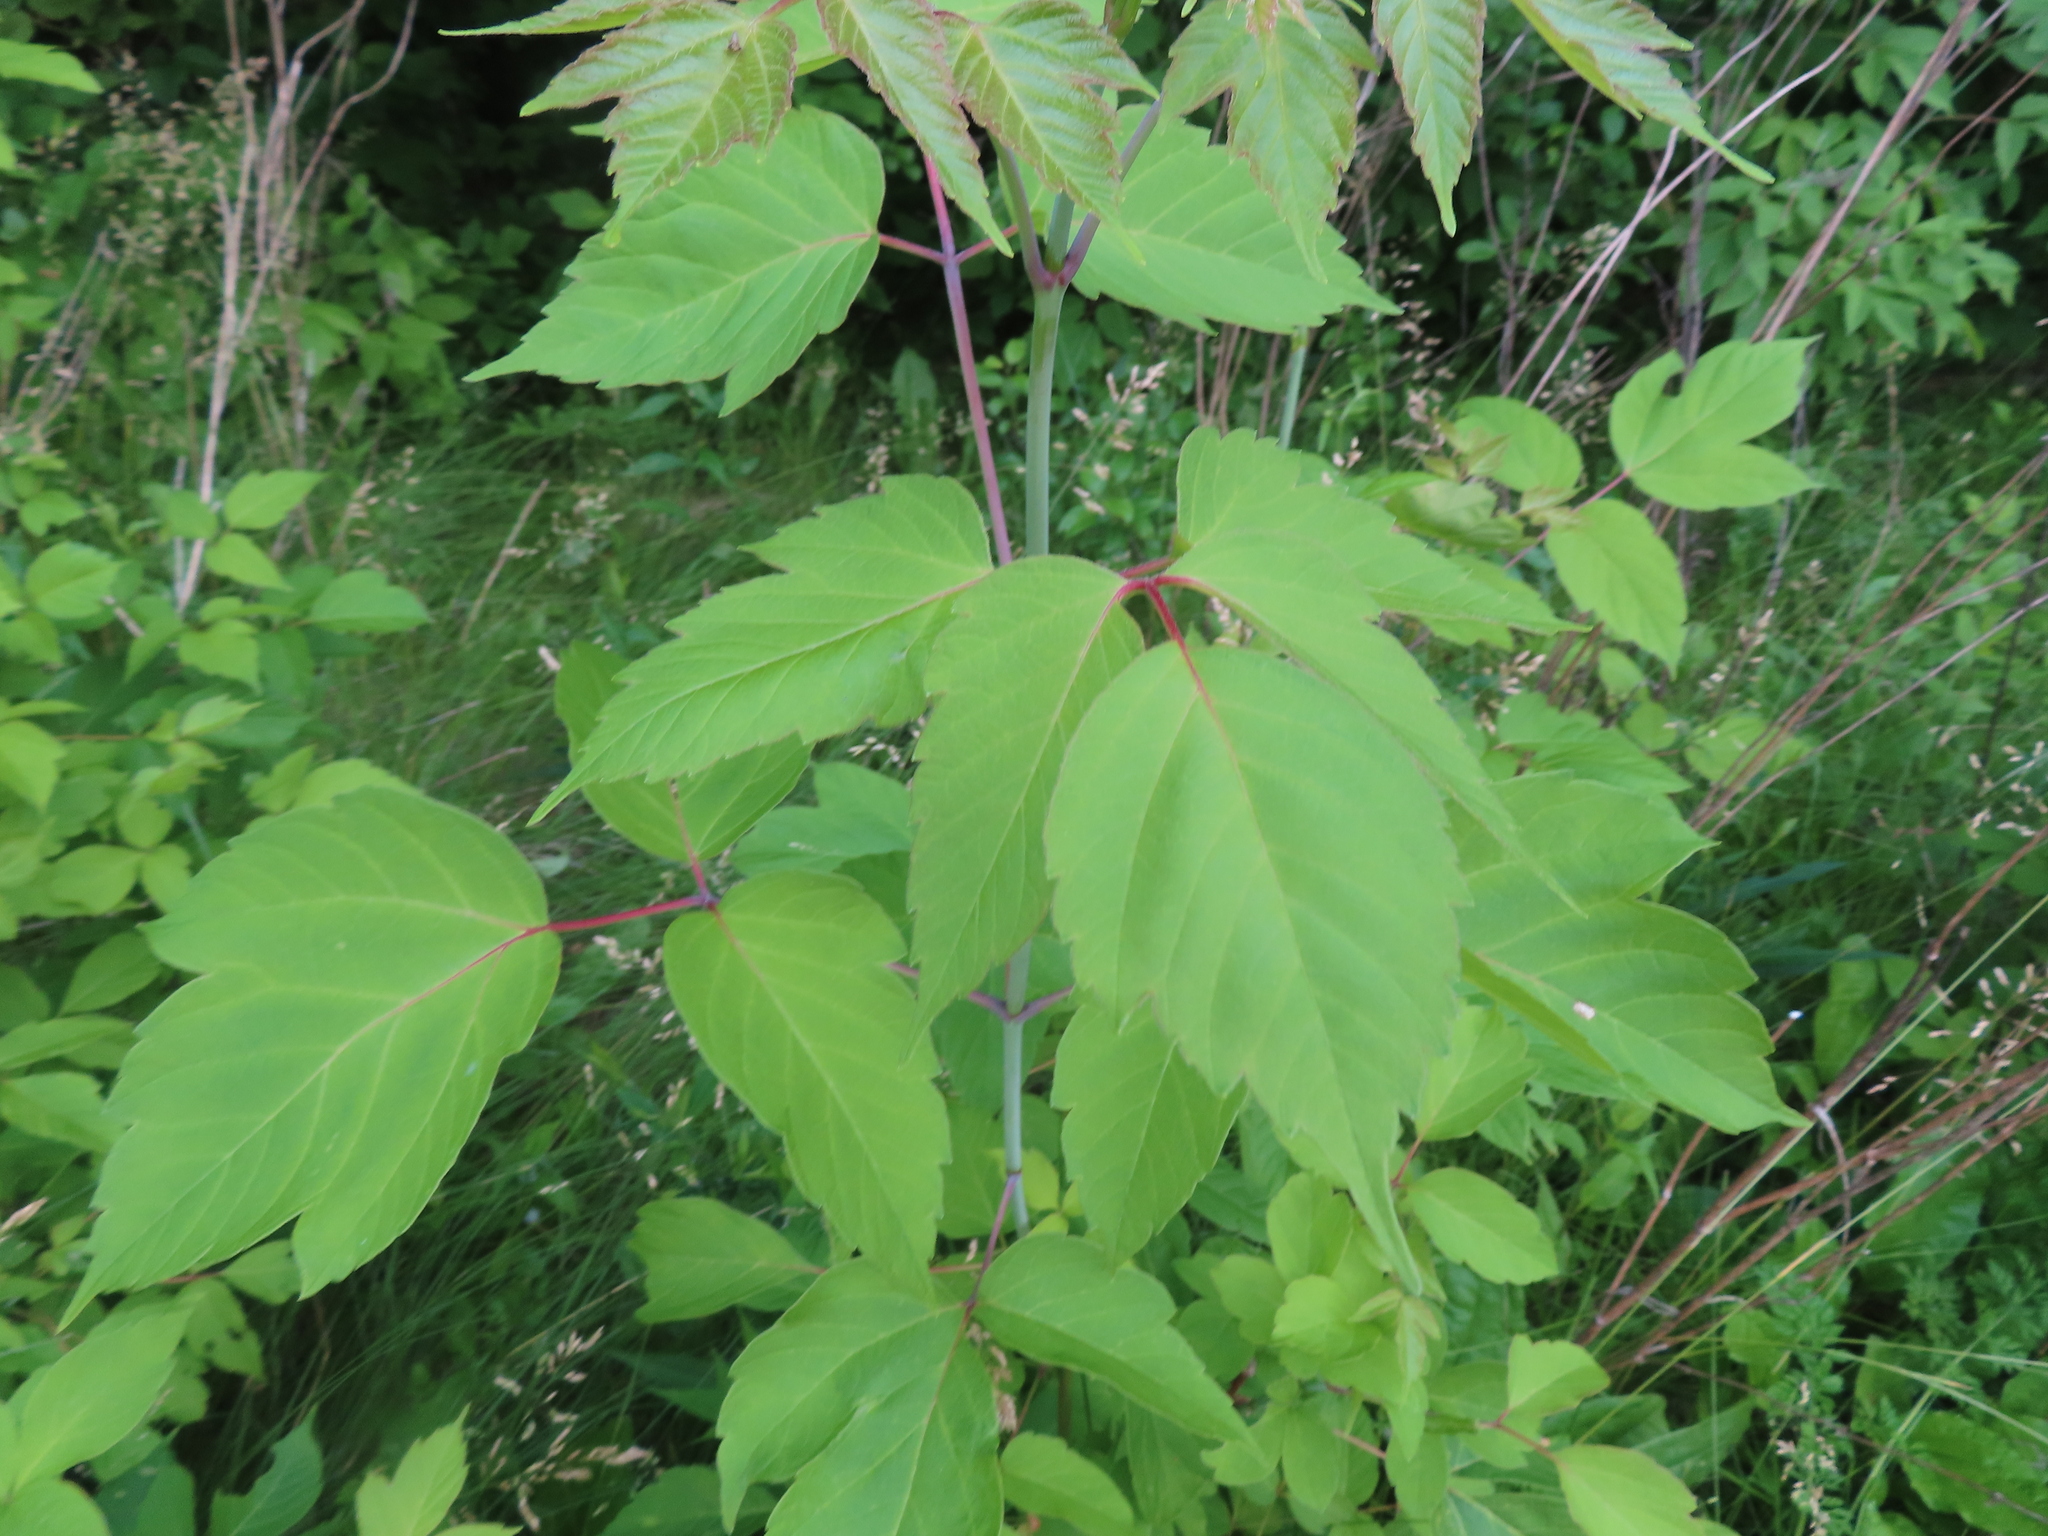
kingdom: Plantae
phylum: Tracheophyta
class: Magnoliopsida
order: Sapindales
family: Sapindaceae
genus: Acer
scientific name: Acer negundo
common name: Ashleaf maple
